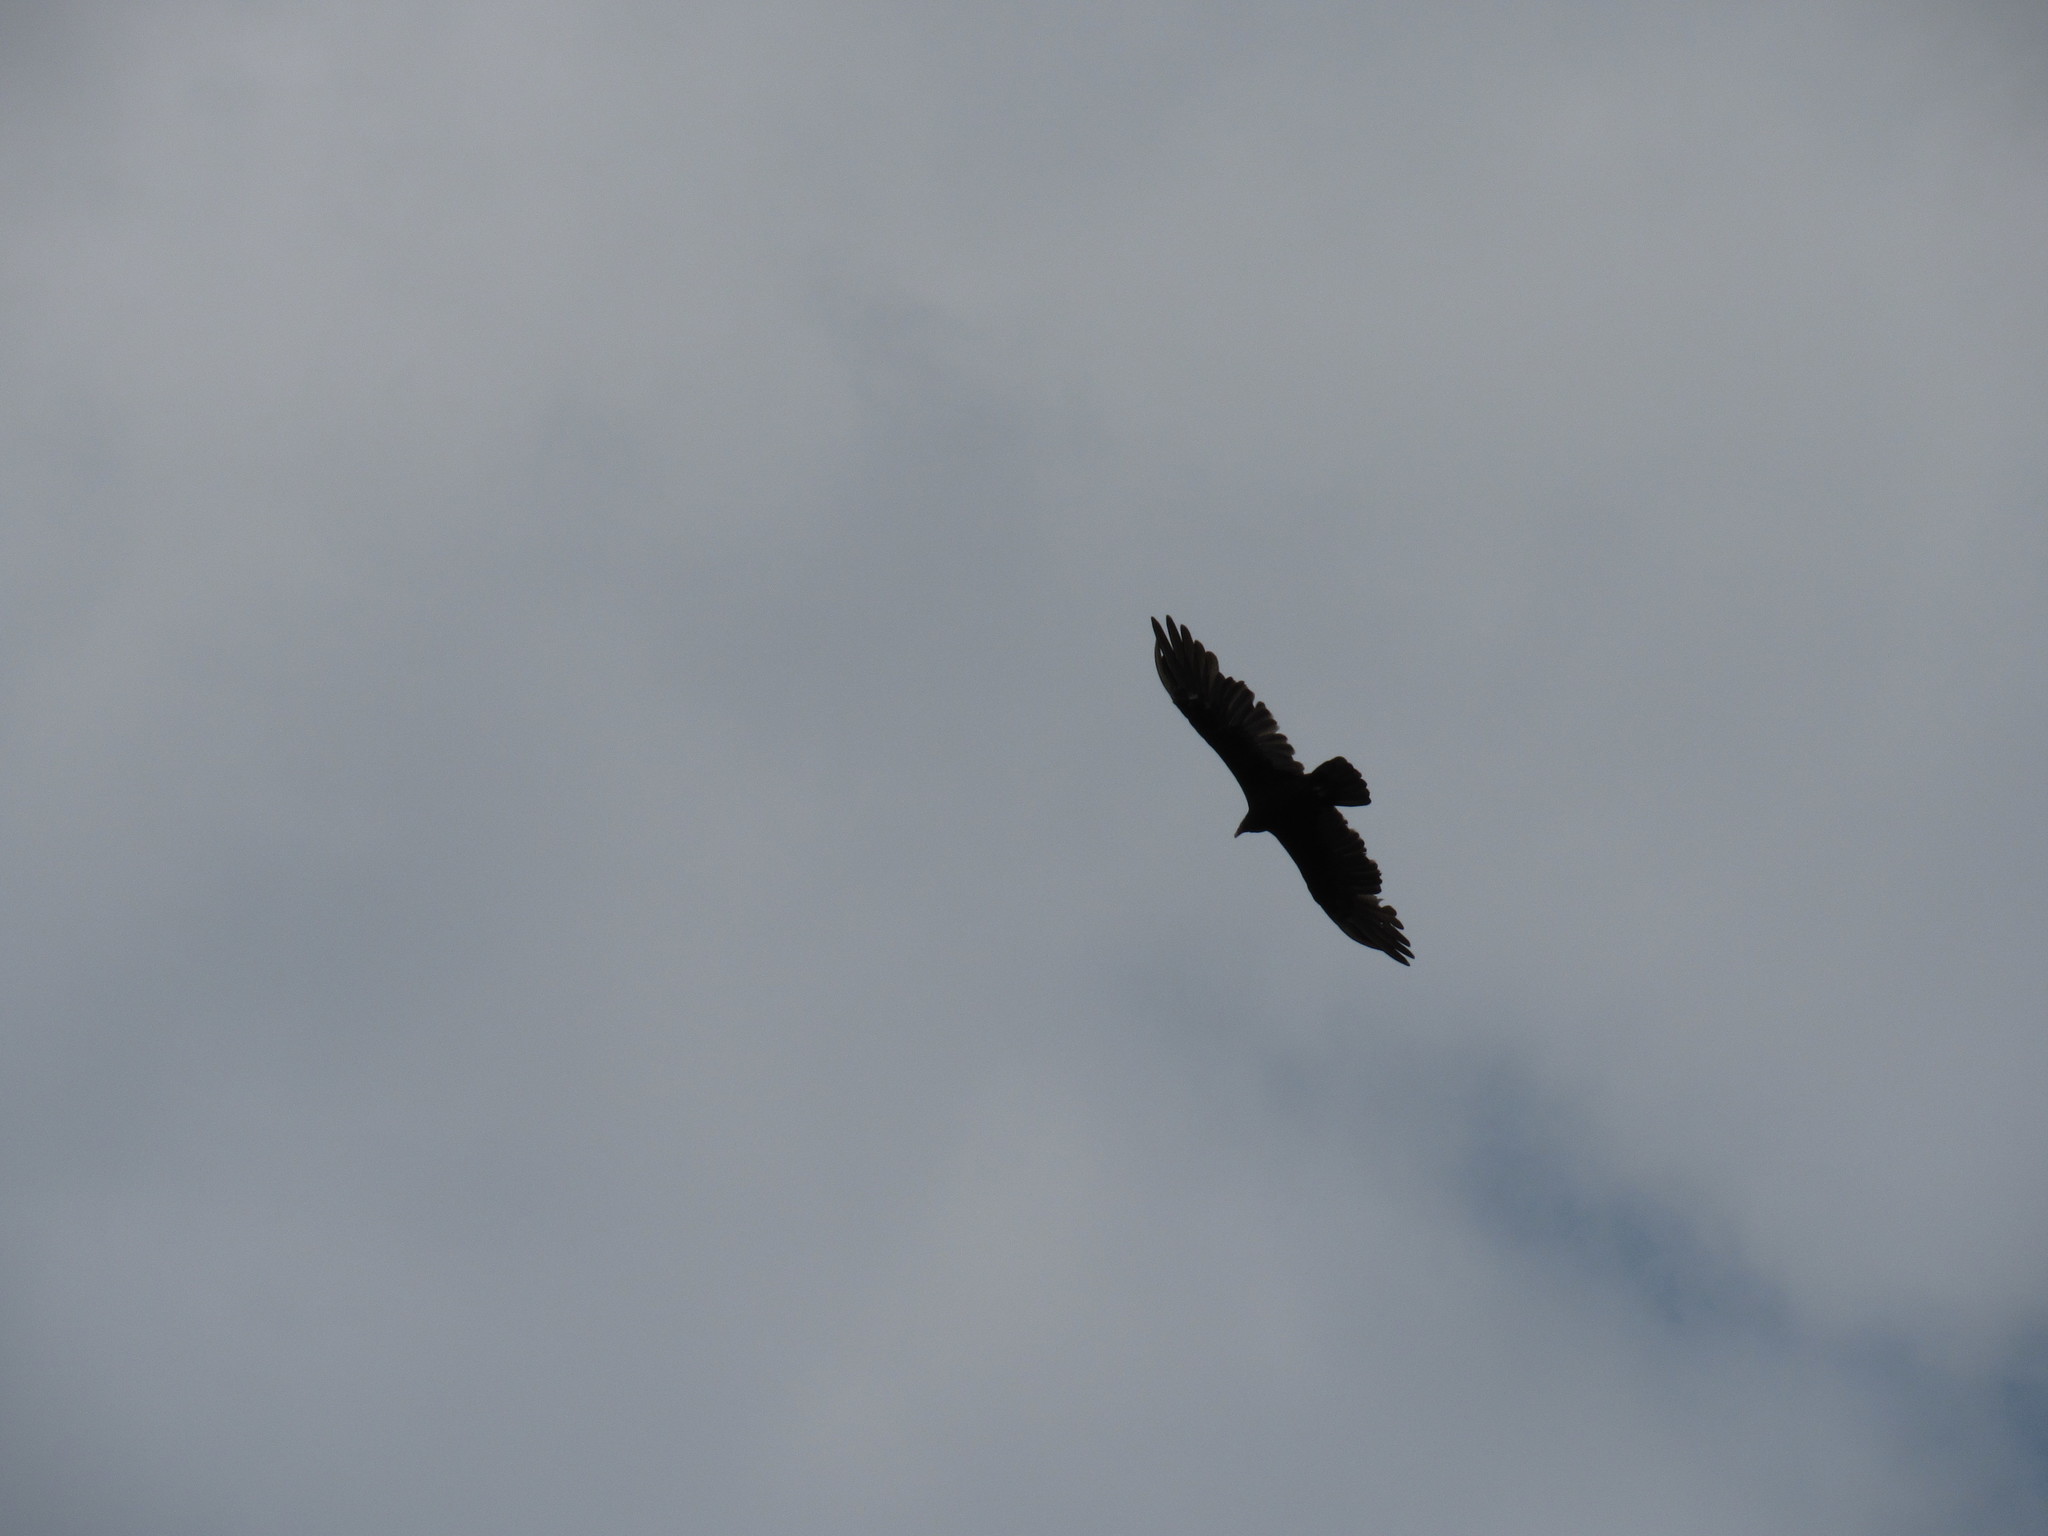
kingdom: Animalia
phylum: Chordata
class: Aves
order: Accipitriformes
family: Cathartidae
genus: Cathartes
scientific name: Cathartes aura
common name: Turkey vulture
